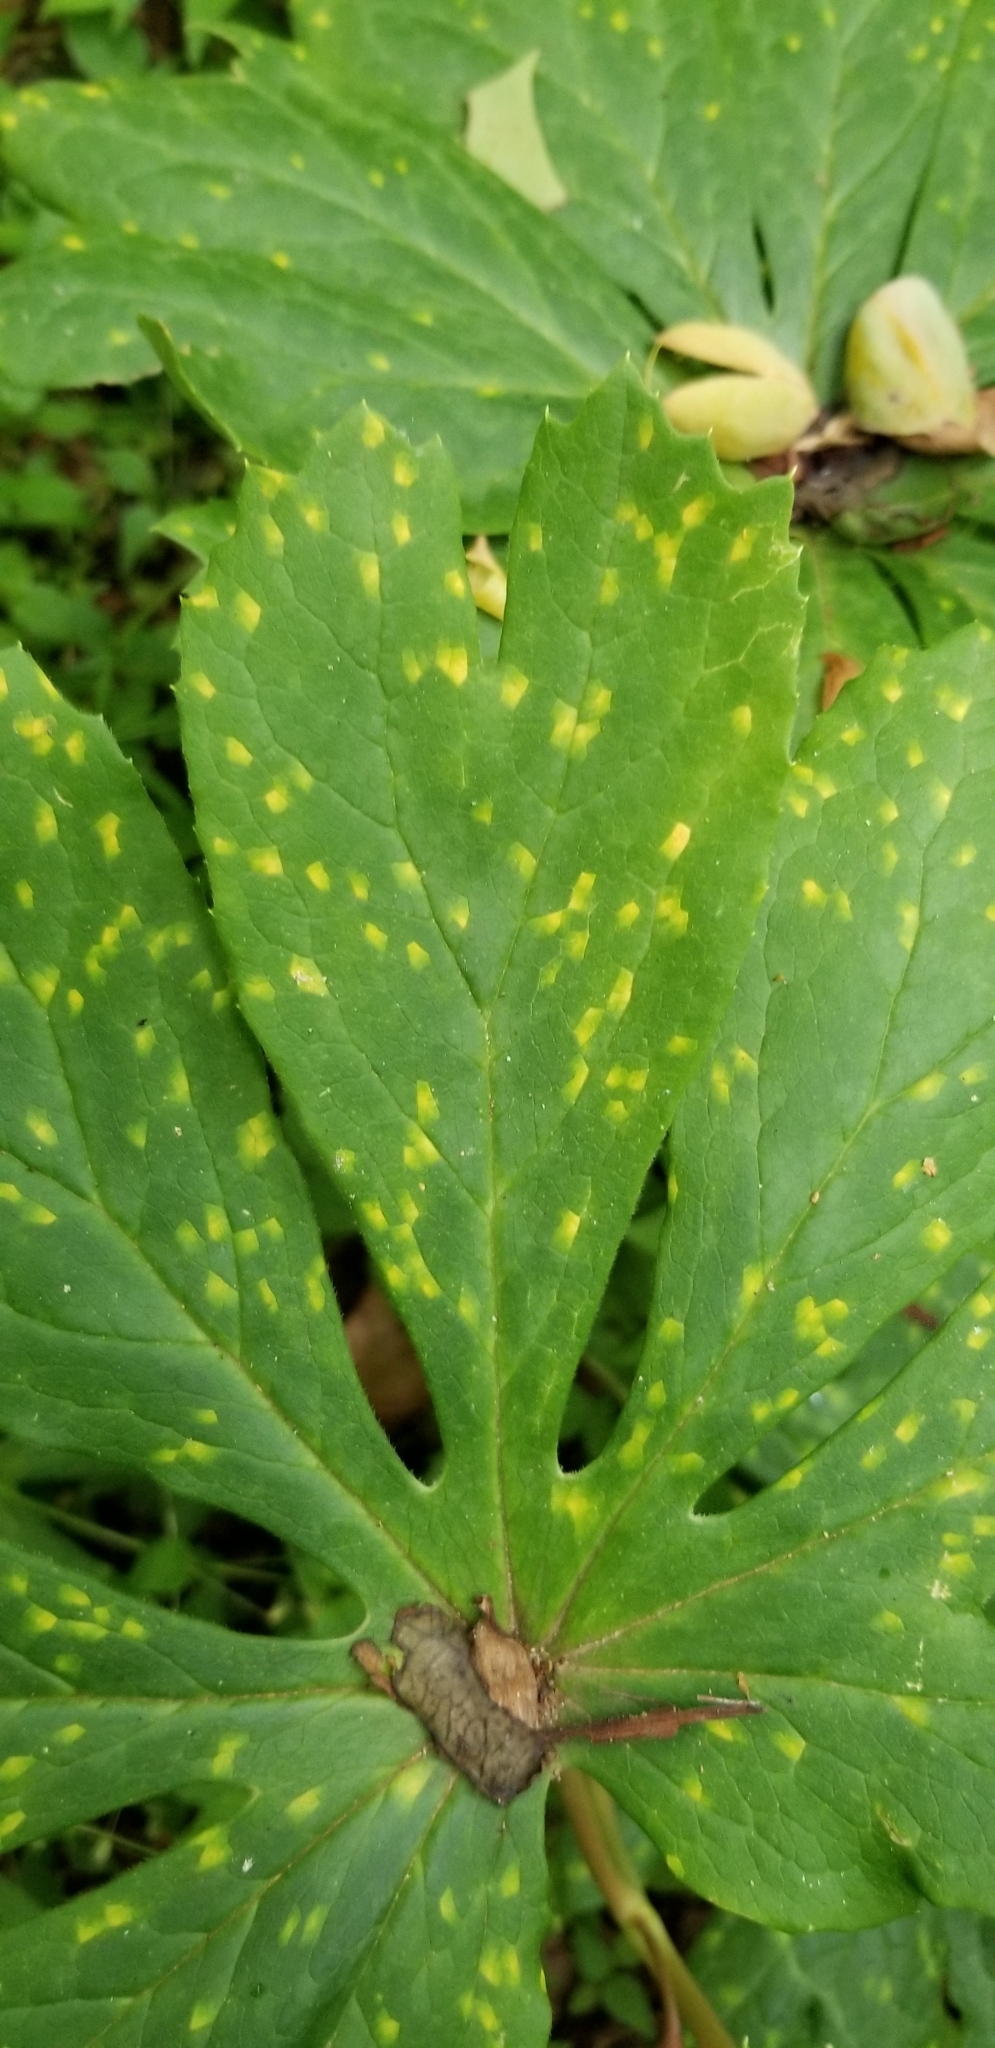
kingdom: Fungi
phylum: Basidiomycota
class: Pucciniomycetes
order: Pucciniales
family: Pucciniaceae
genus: Puccinia
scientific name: Puccinia podophylli
